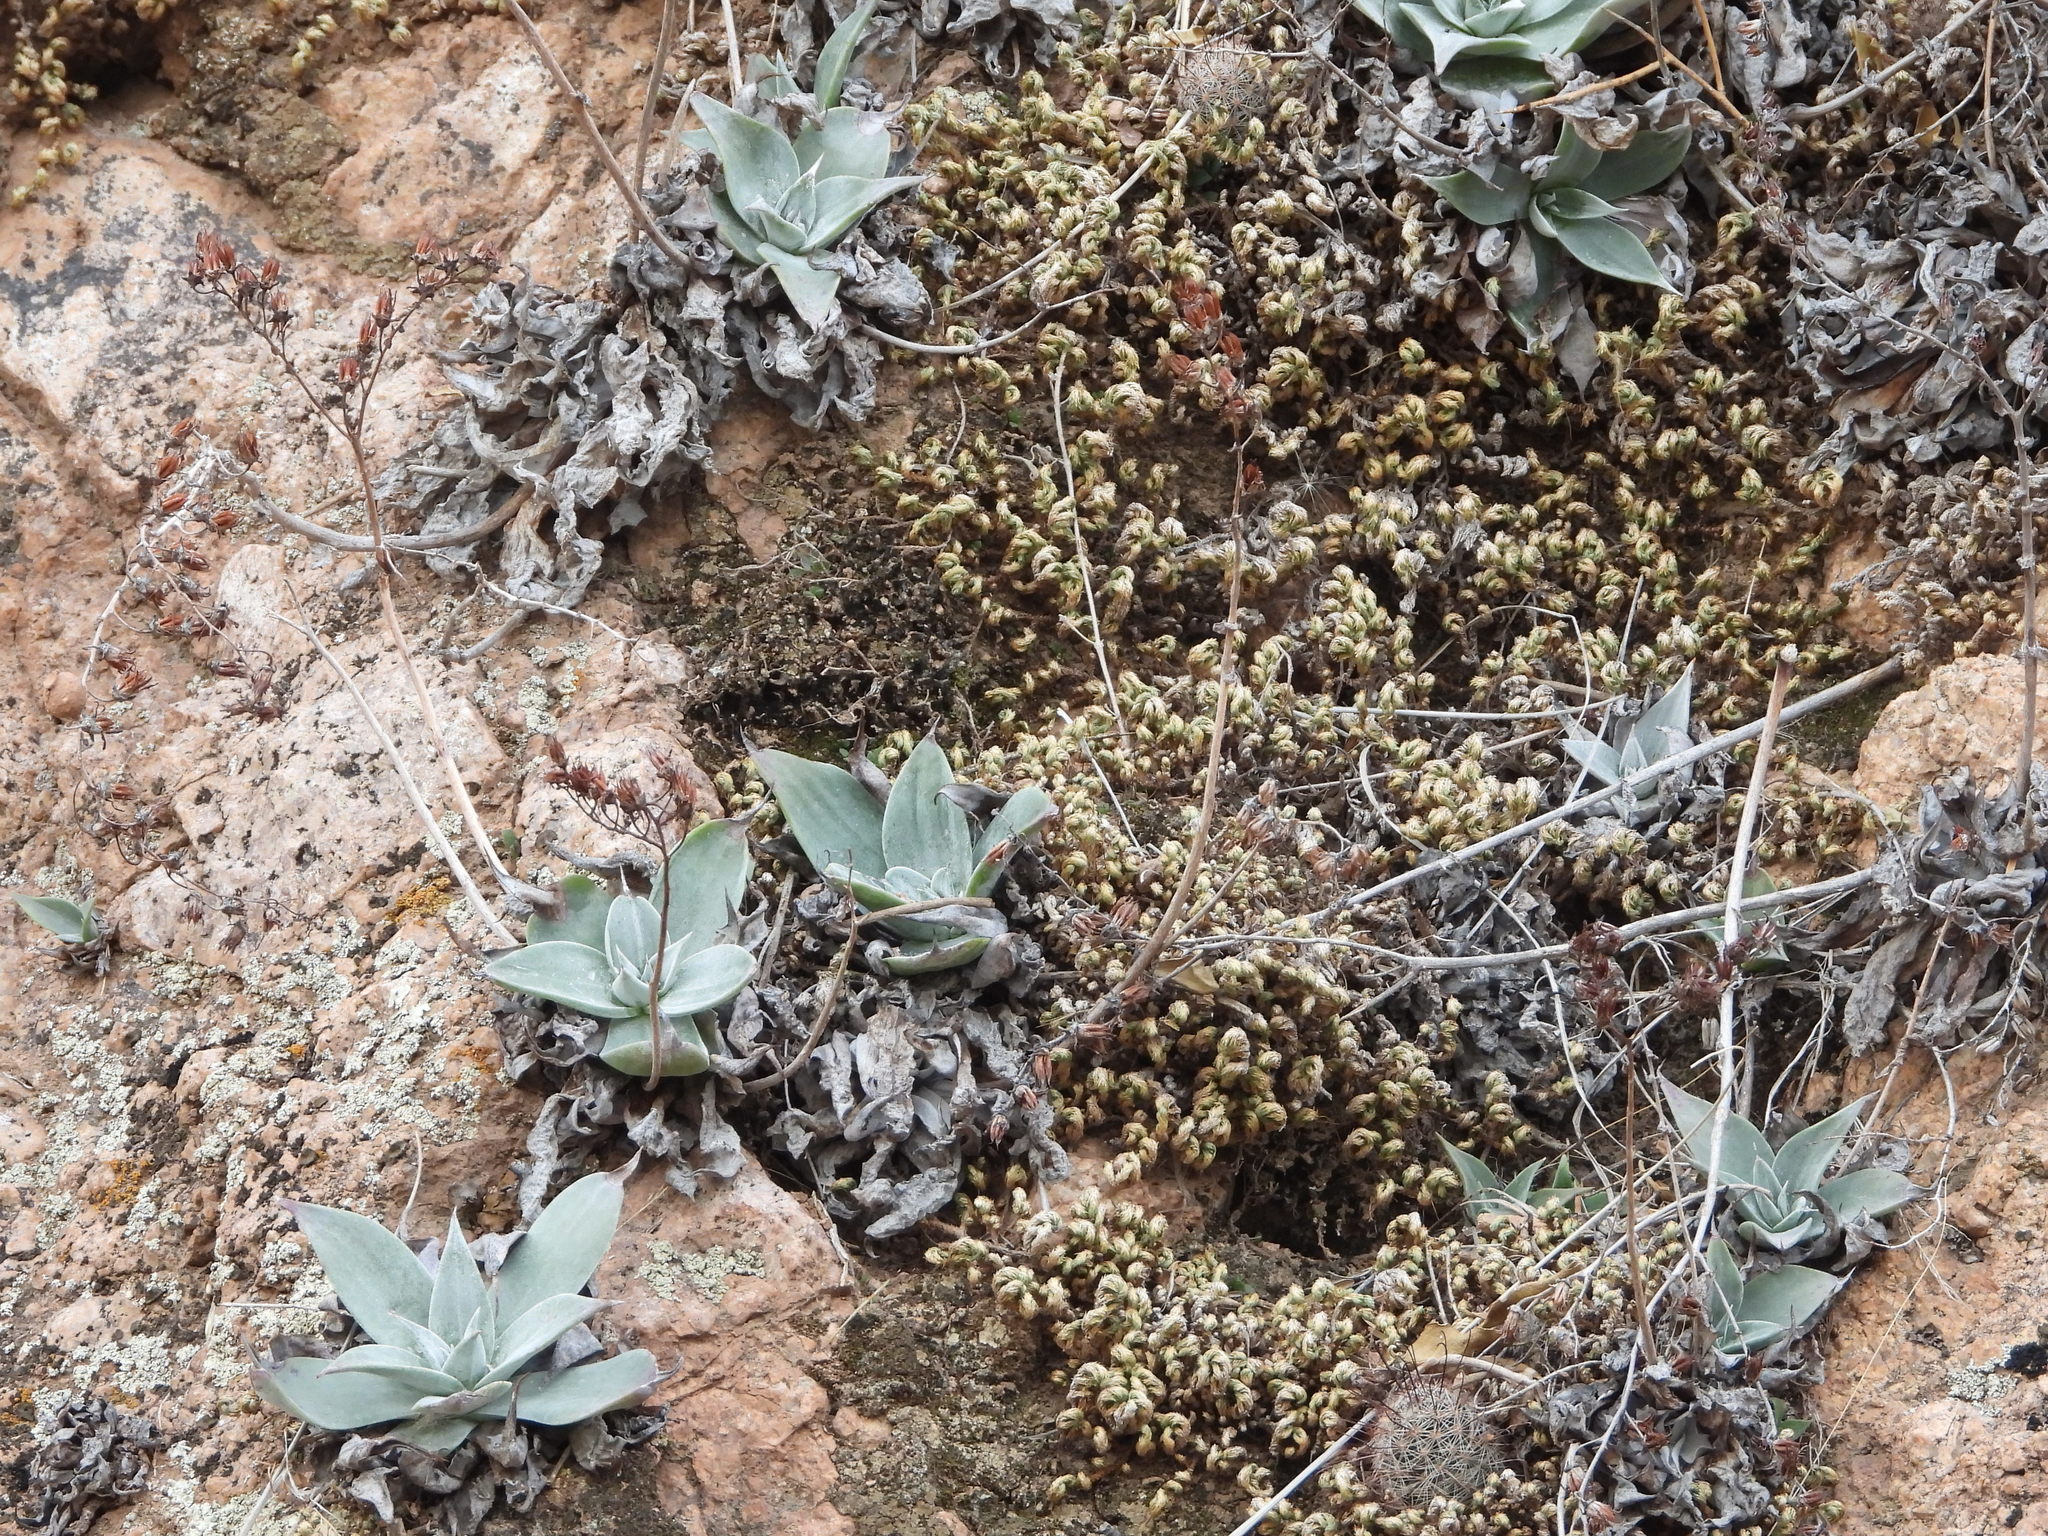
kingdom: Plantae
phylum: Tracheophyta
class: Magnoliopsida
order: Saxifragales
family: Crassulaceae
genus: Dudleya
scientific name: Dudleya arizonica
